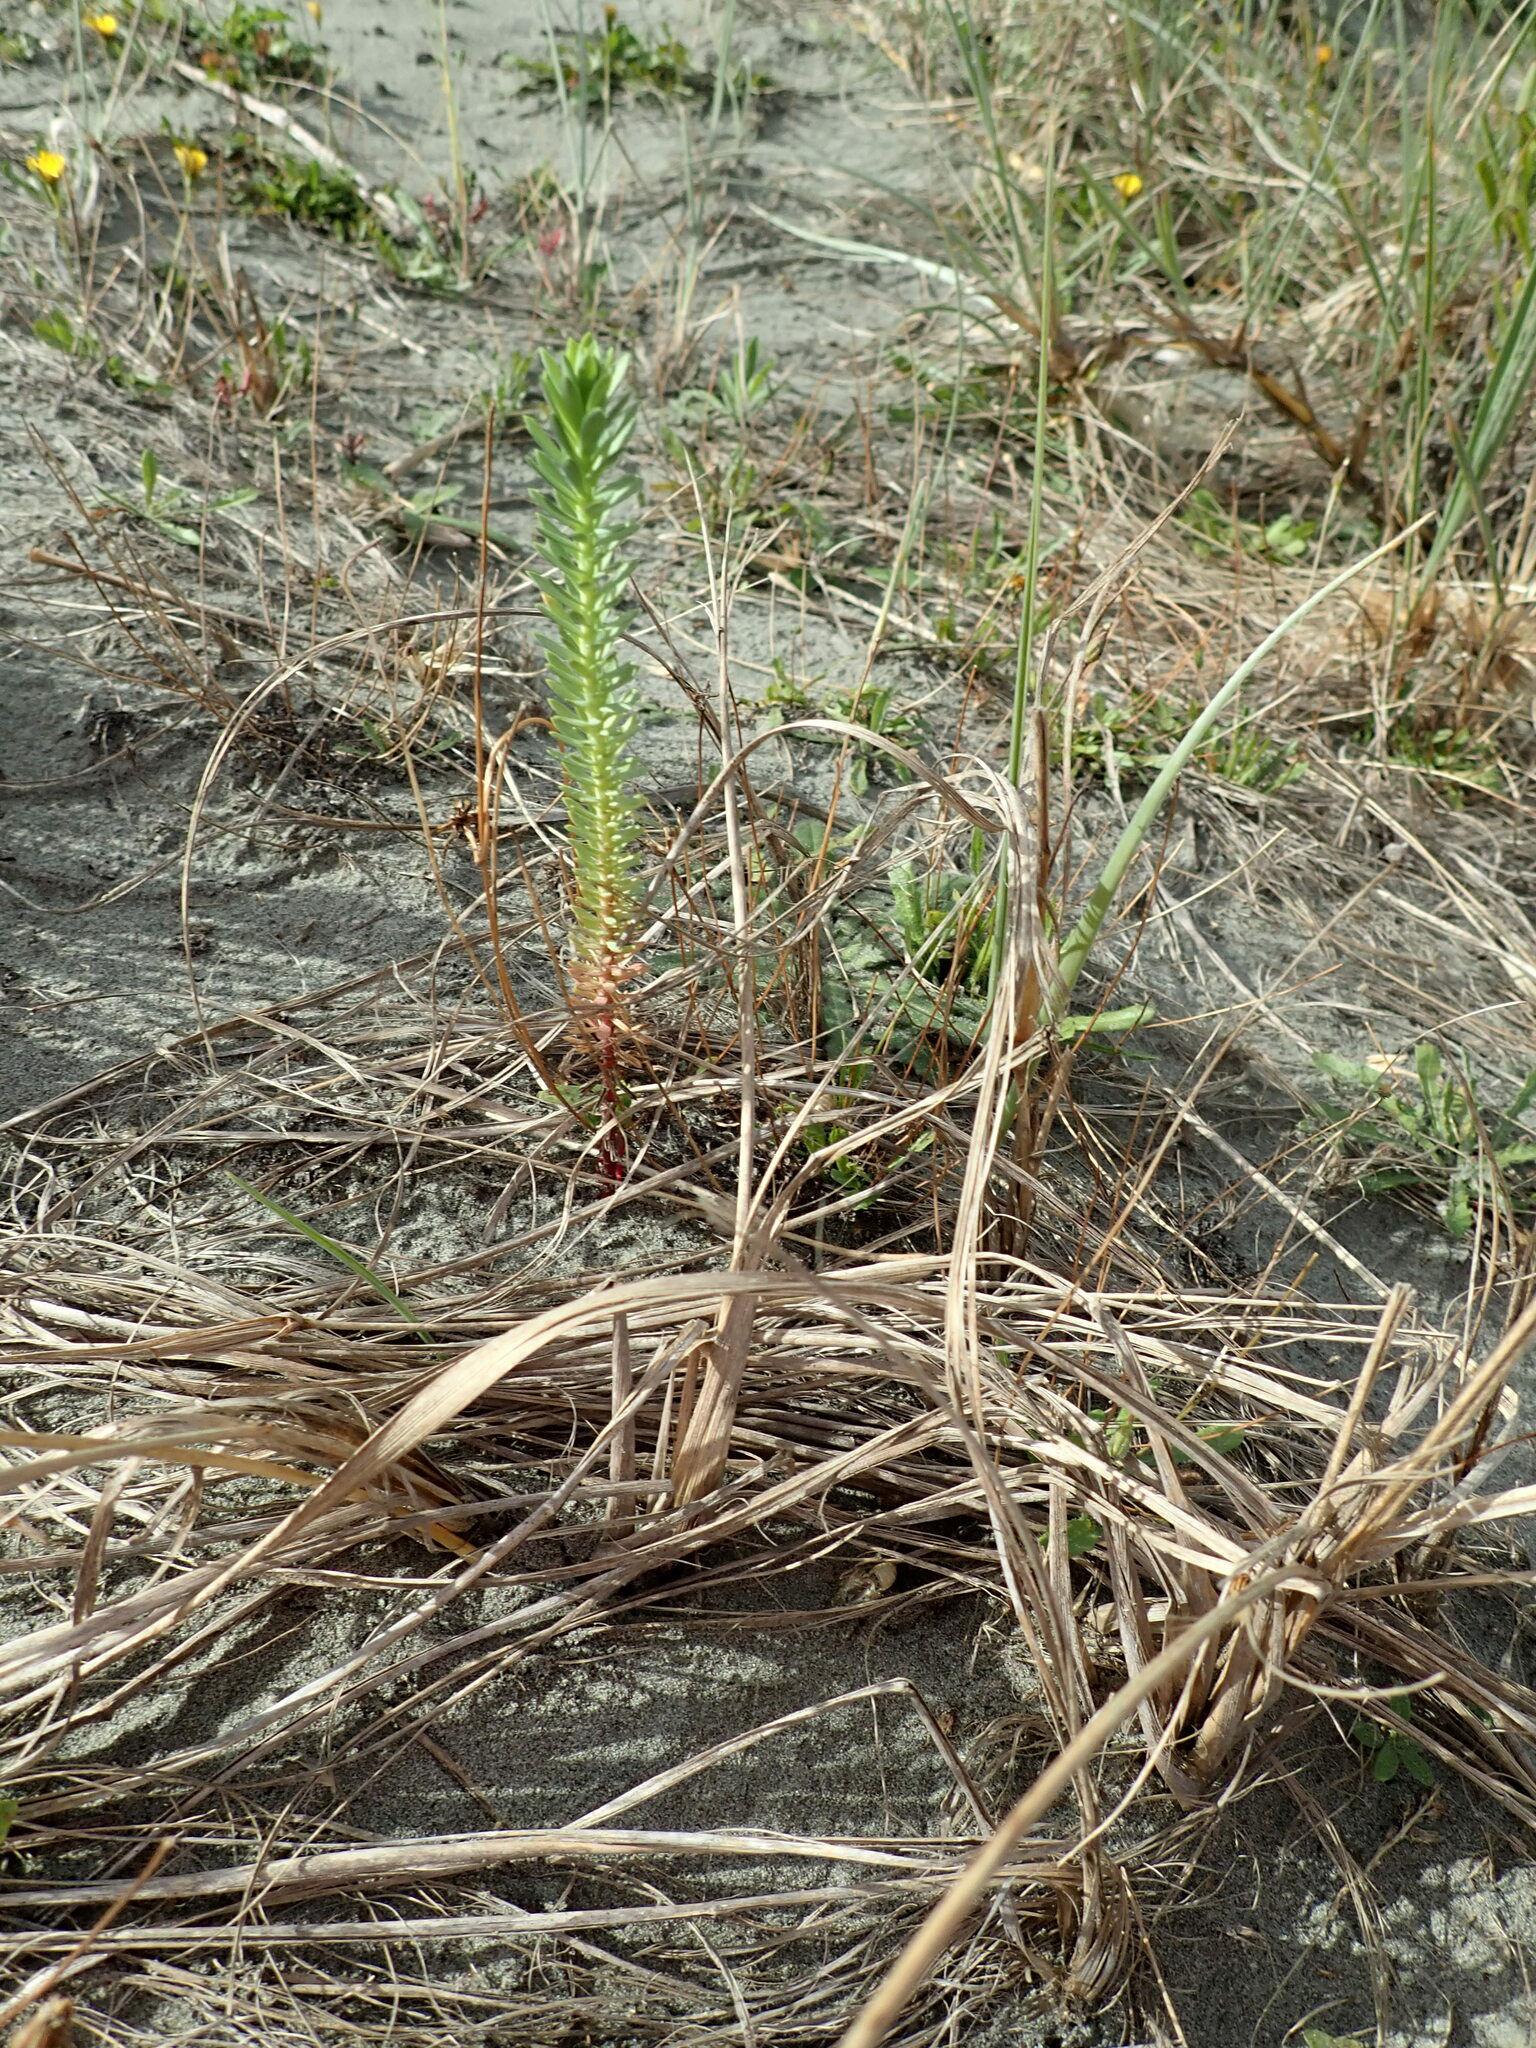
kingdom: Plantae
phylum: Tracheophyta
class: Magnoliopsida
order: Malpighiales
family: Euphorbiaceae
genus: Euphorbia
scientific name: Euphorbia paralias
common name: Sea spurge
